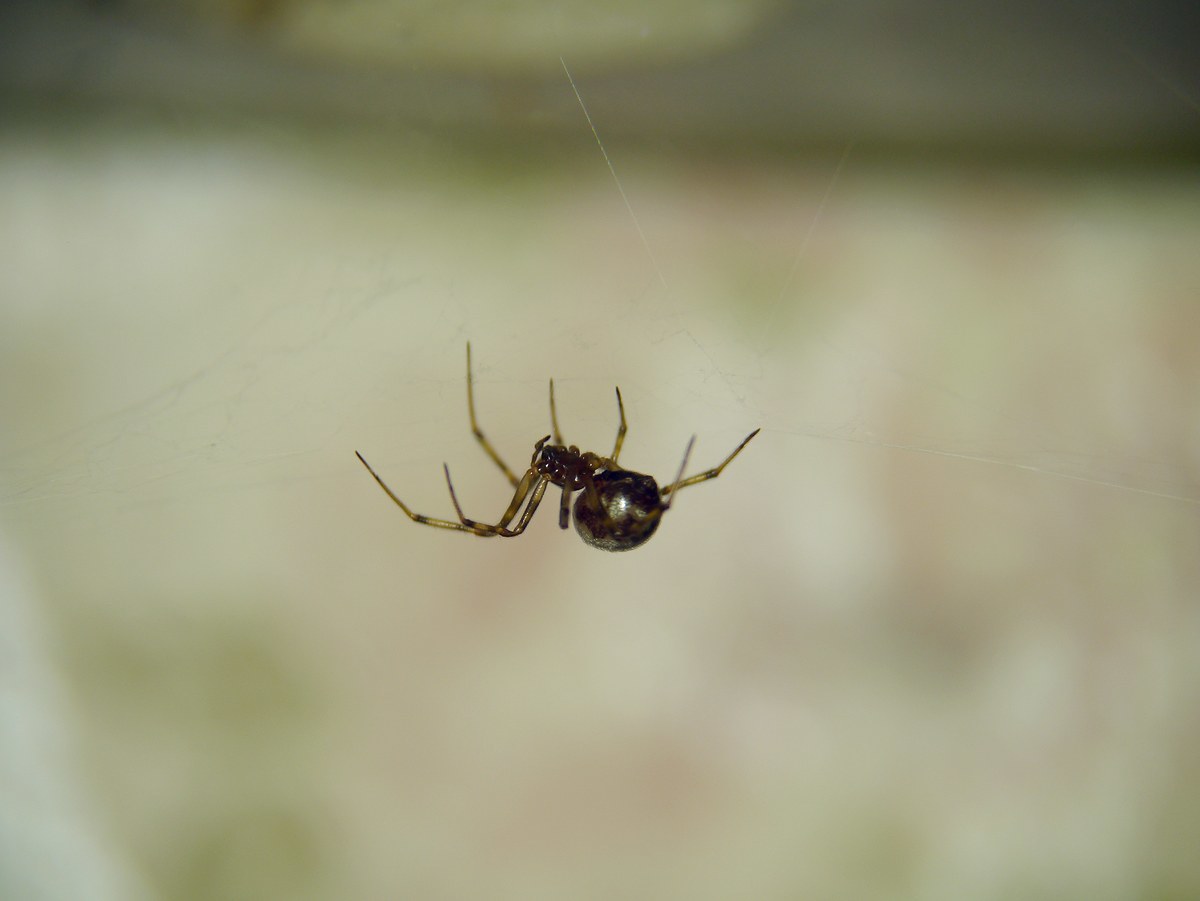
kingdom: Animalia
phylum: Arthropoda
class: Arachnida
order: Araneae
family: Theridiidae
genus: Steatoda
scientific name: Steatoda triangulosa
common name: Triangulate bud spider
